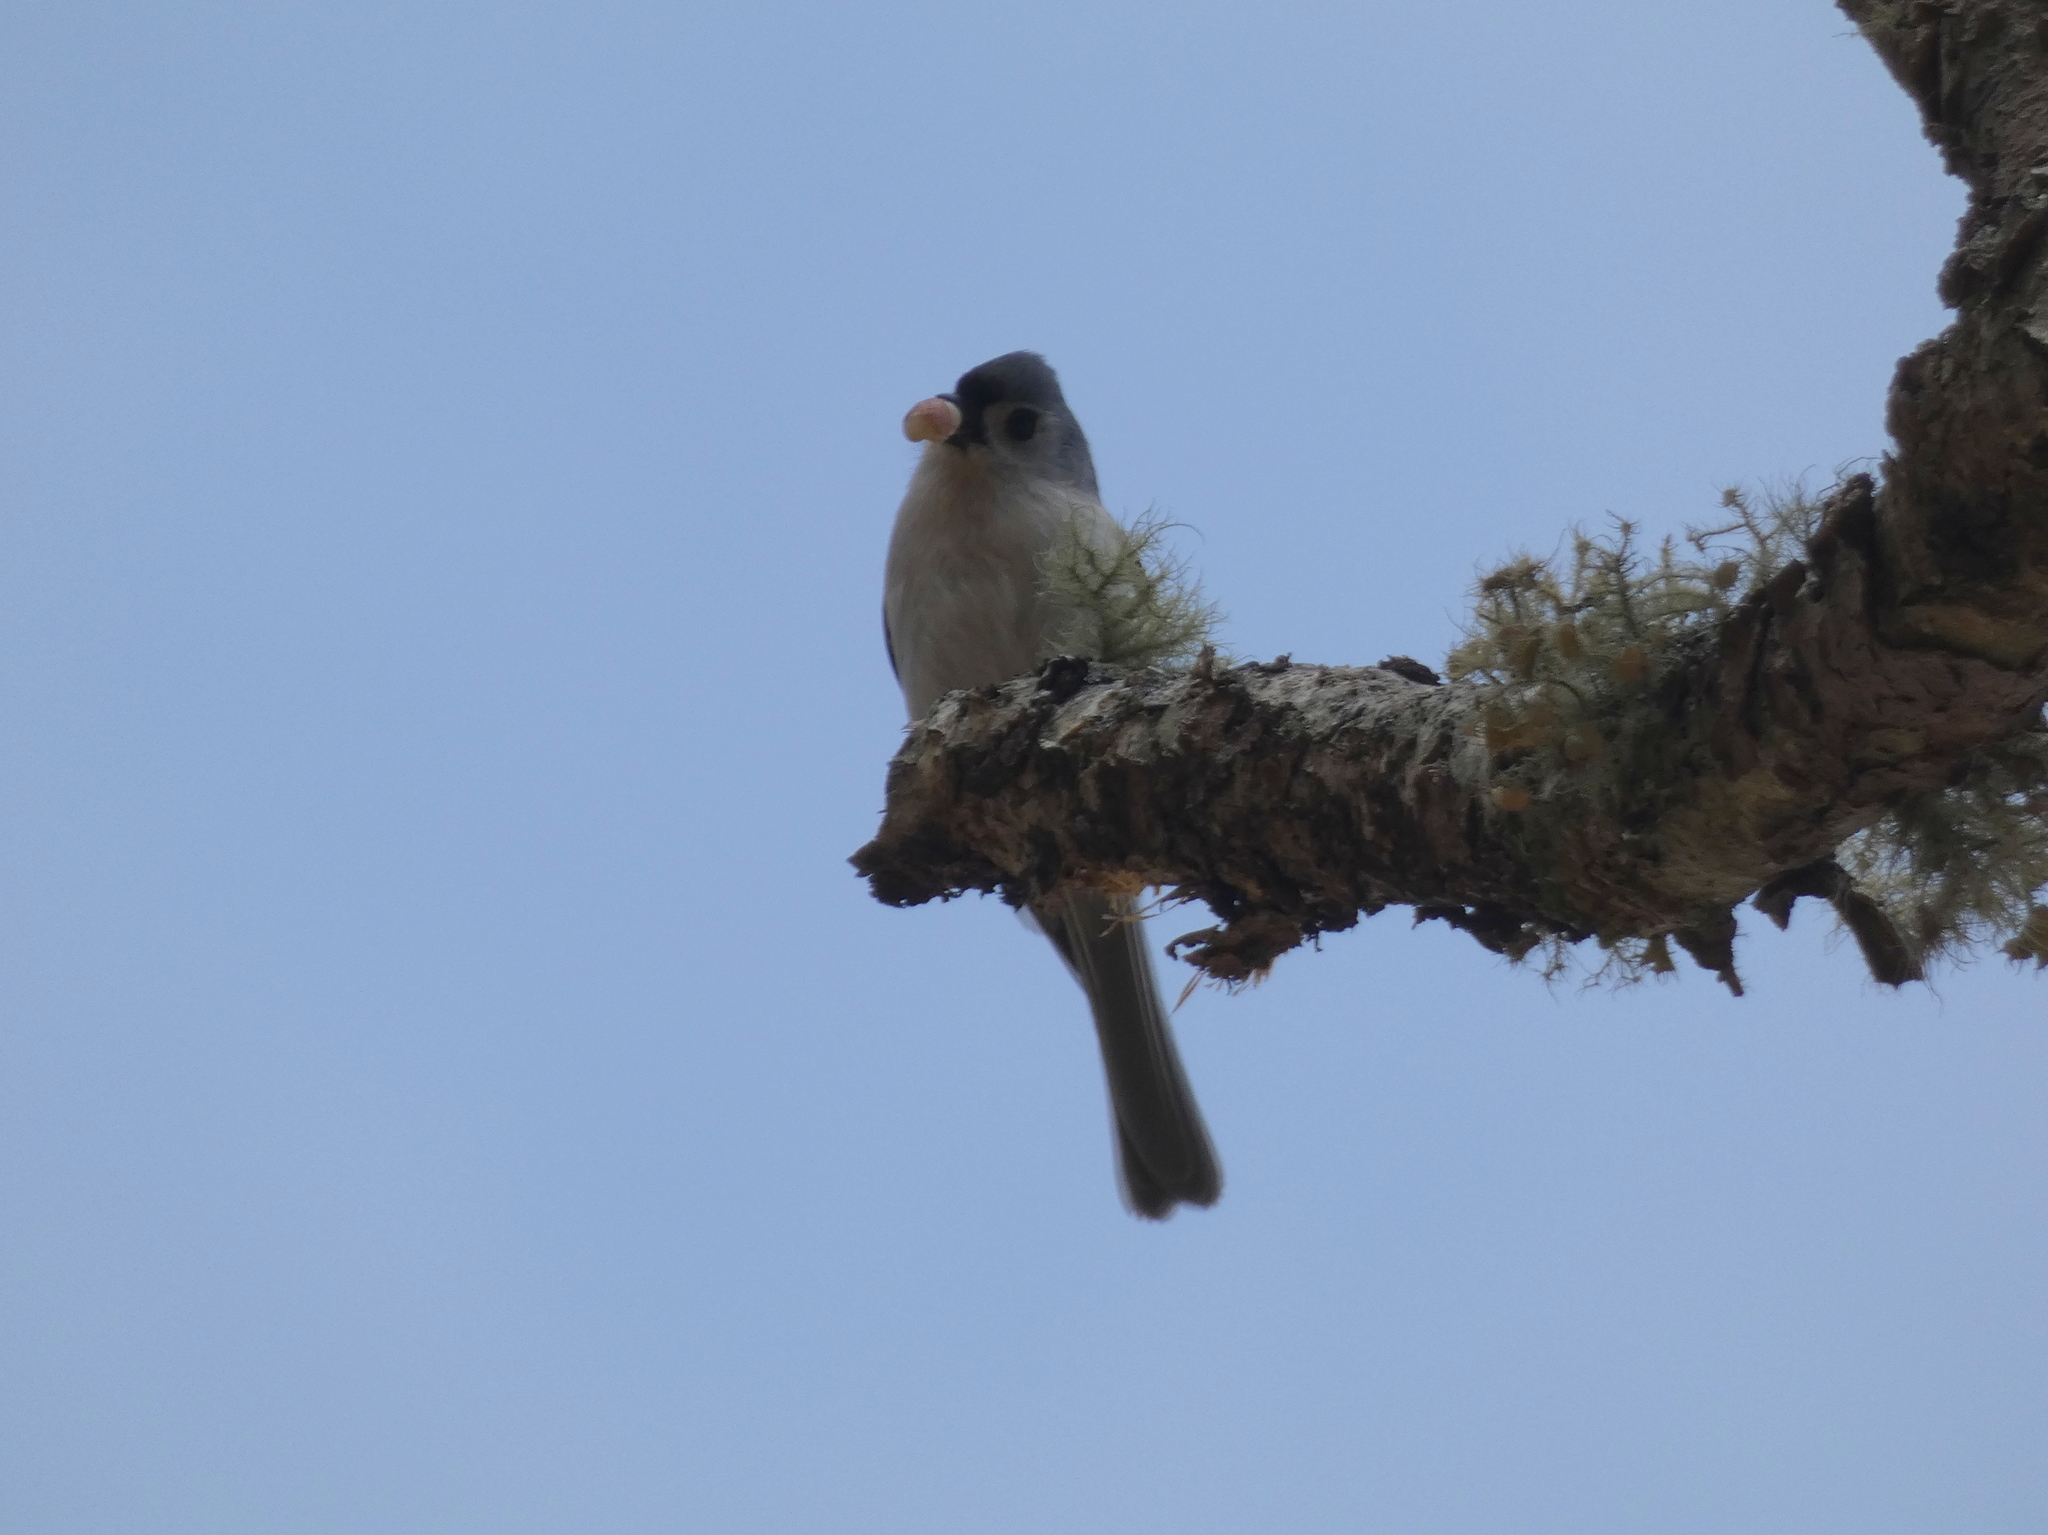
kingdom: Animalia
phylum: Chordata
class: Aves
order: Passeriformes
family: Paridae
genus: Baeolophus
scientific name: Baeolophus bicolor
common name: Tufted titmouse
